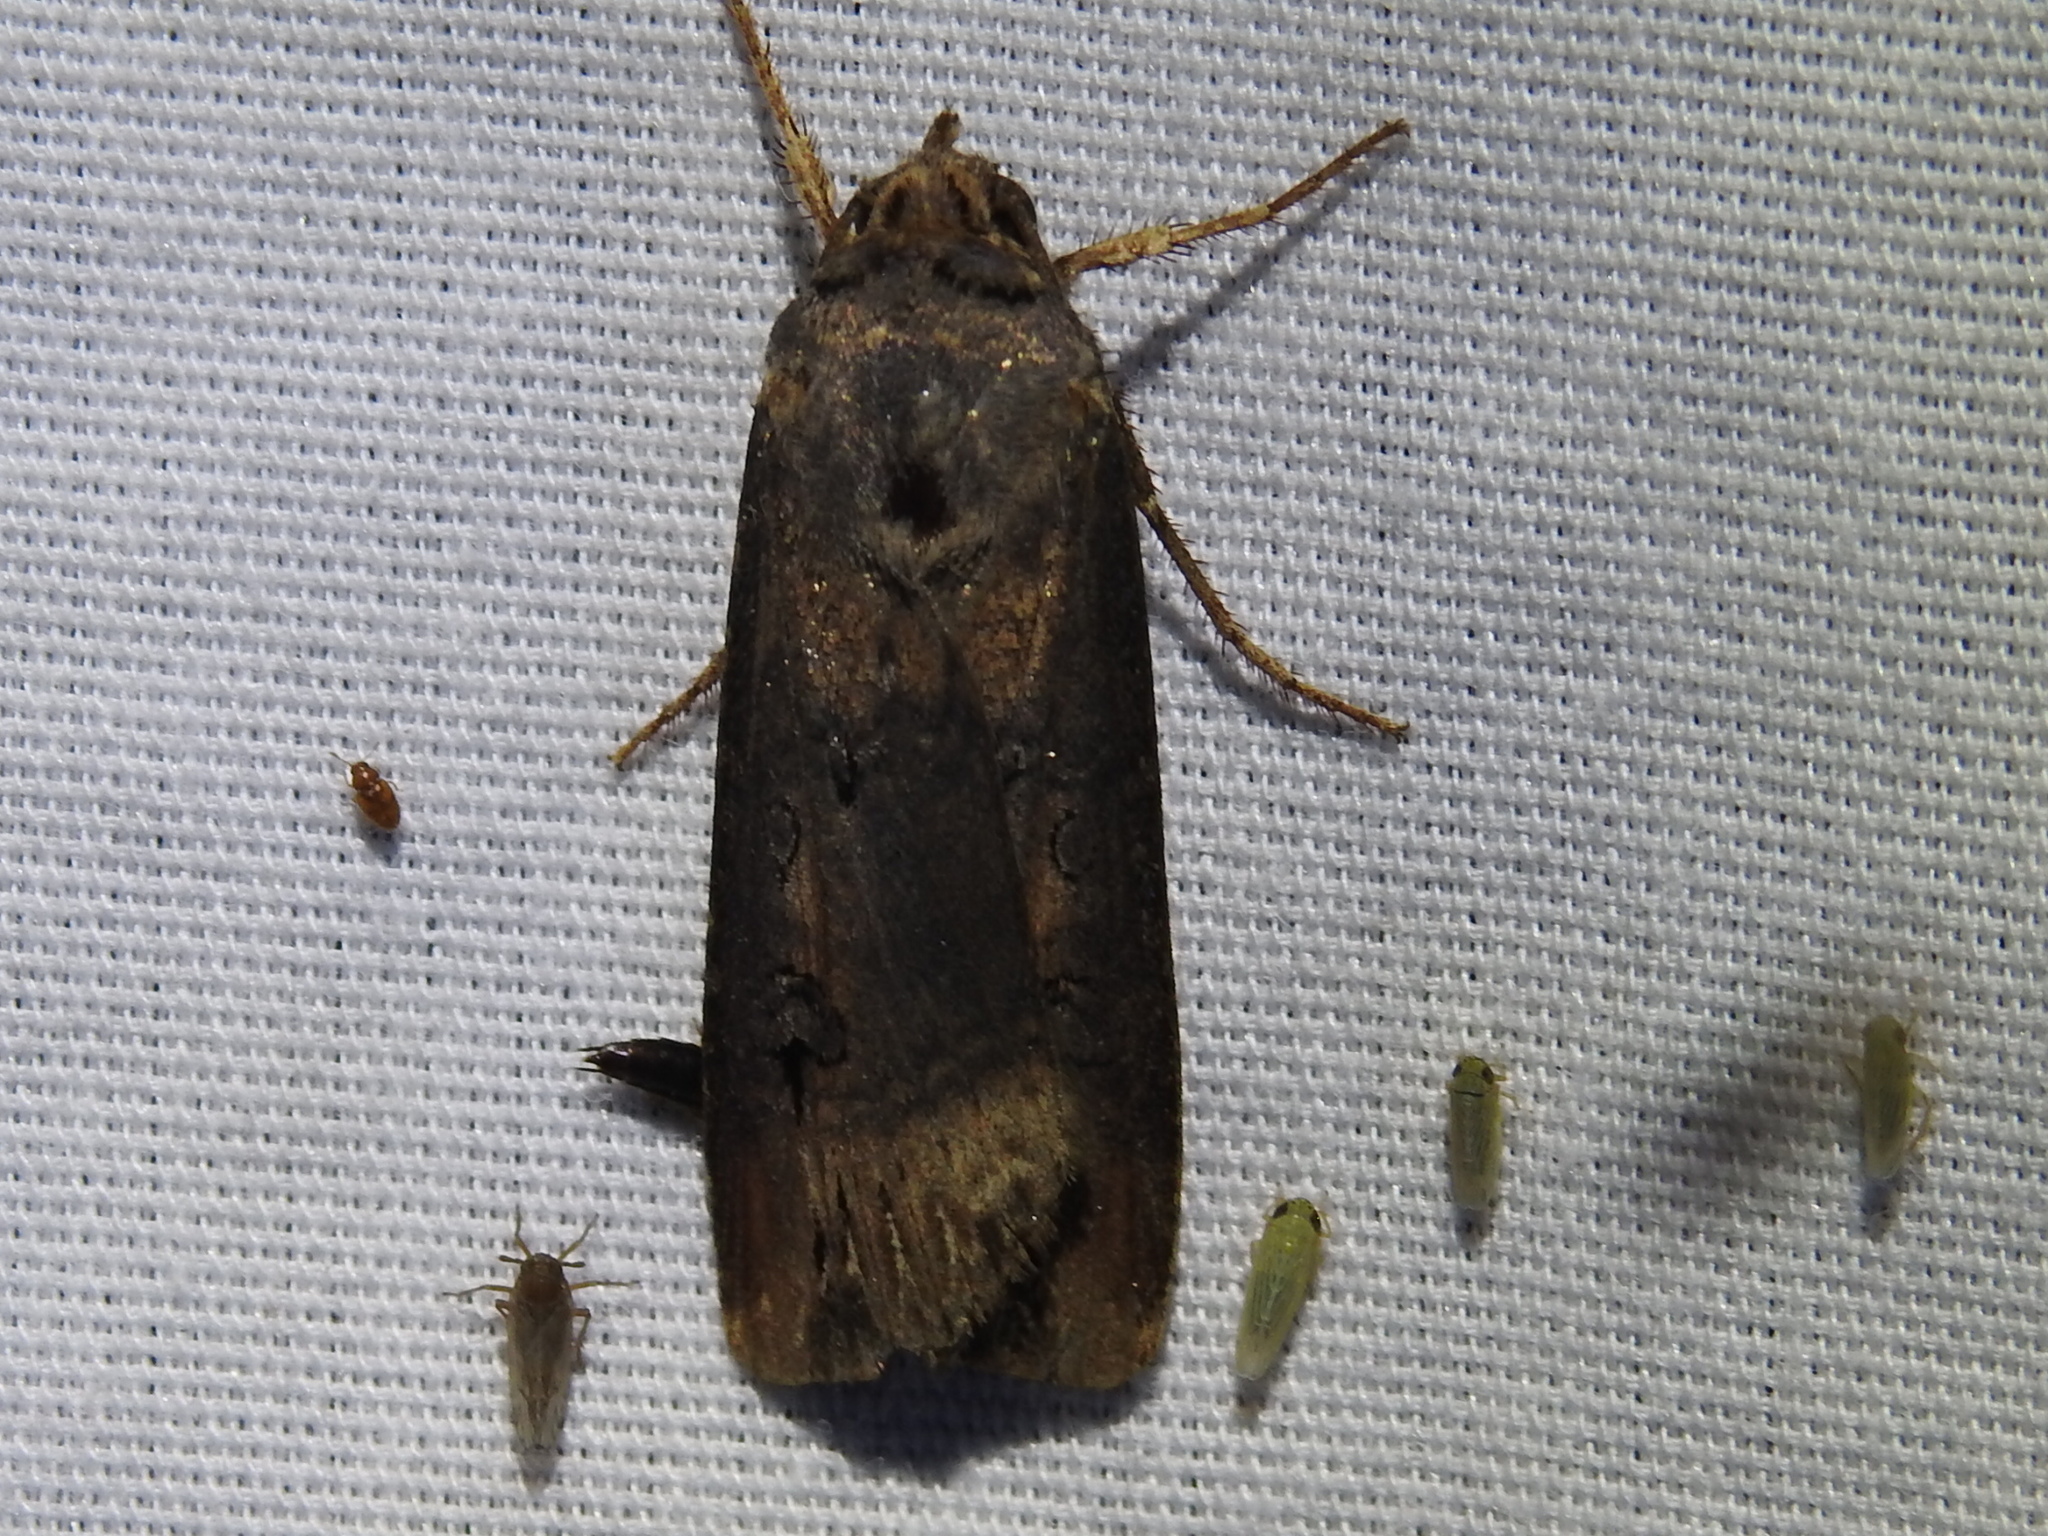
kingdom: Animalia
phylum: Arthropoda
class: Insecta
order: Lepidoptera
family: Noctuidae
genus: Agrotis
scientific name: Agrotis ipsilon
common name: Dark sword-grass
